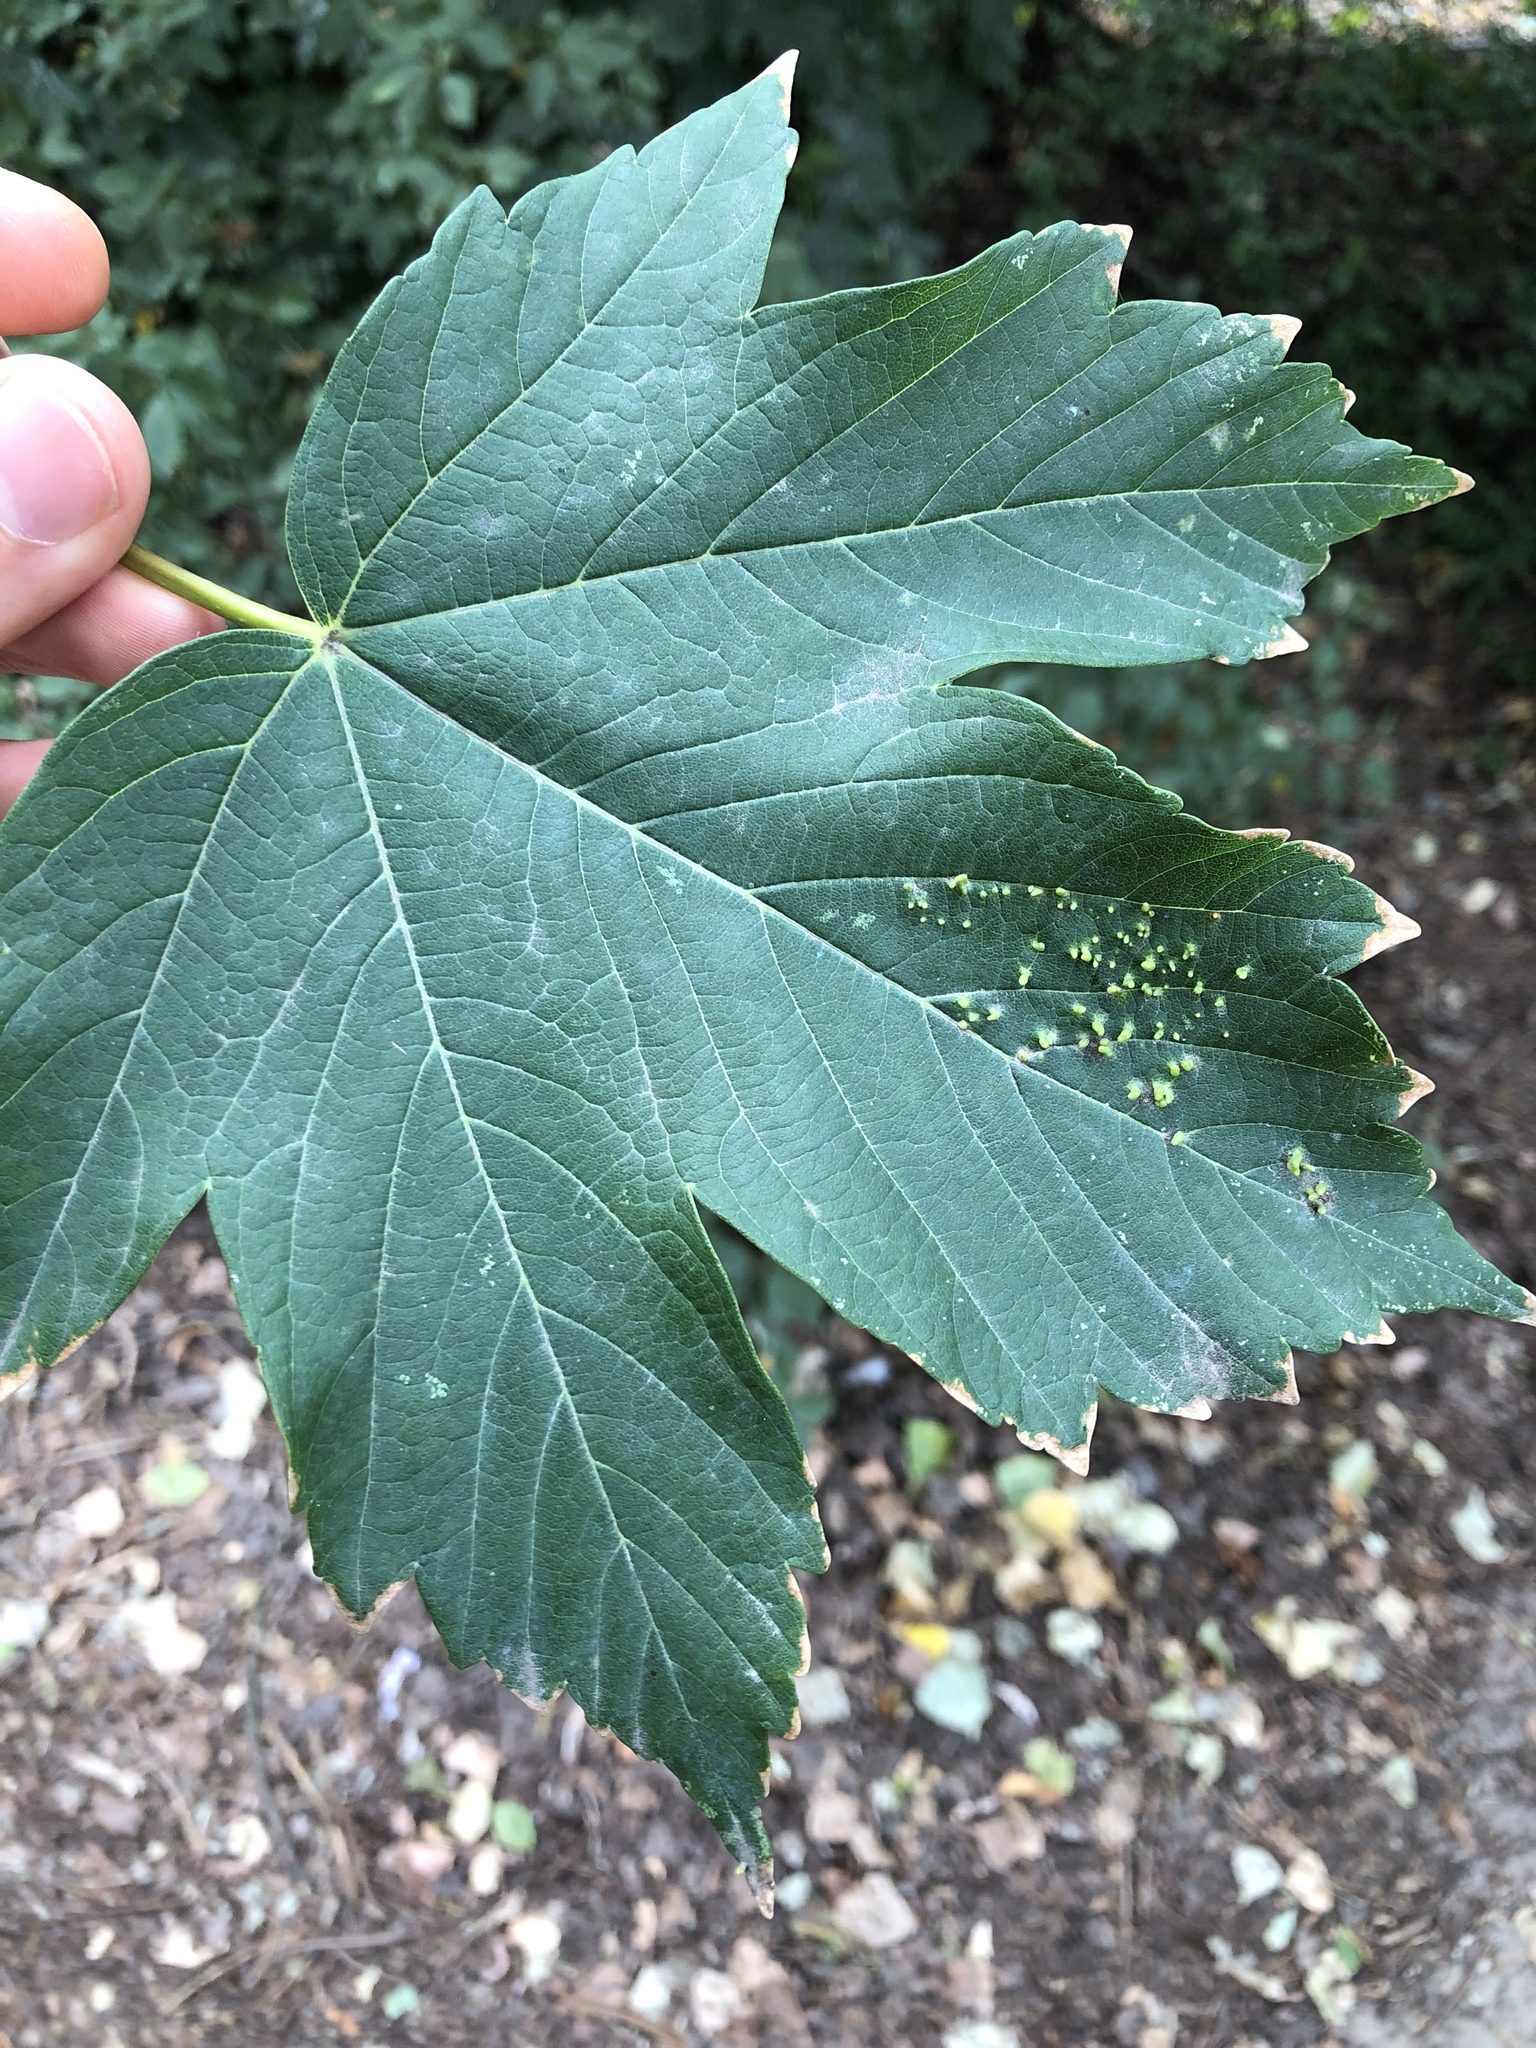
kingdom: Animalia
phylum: Arthropoda
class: Arachnida
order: Trombidiformes
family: Eriophyidae
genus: Aceria
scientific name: Aceria cephaloneus
